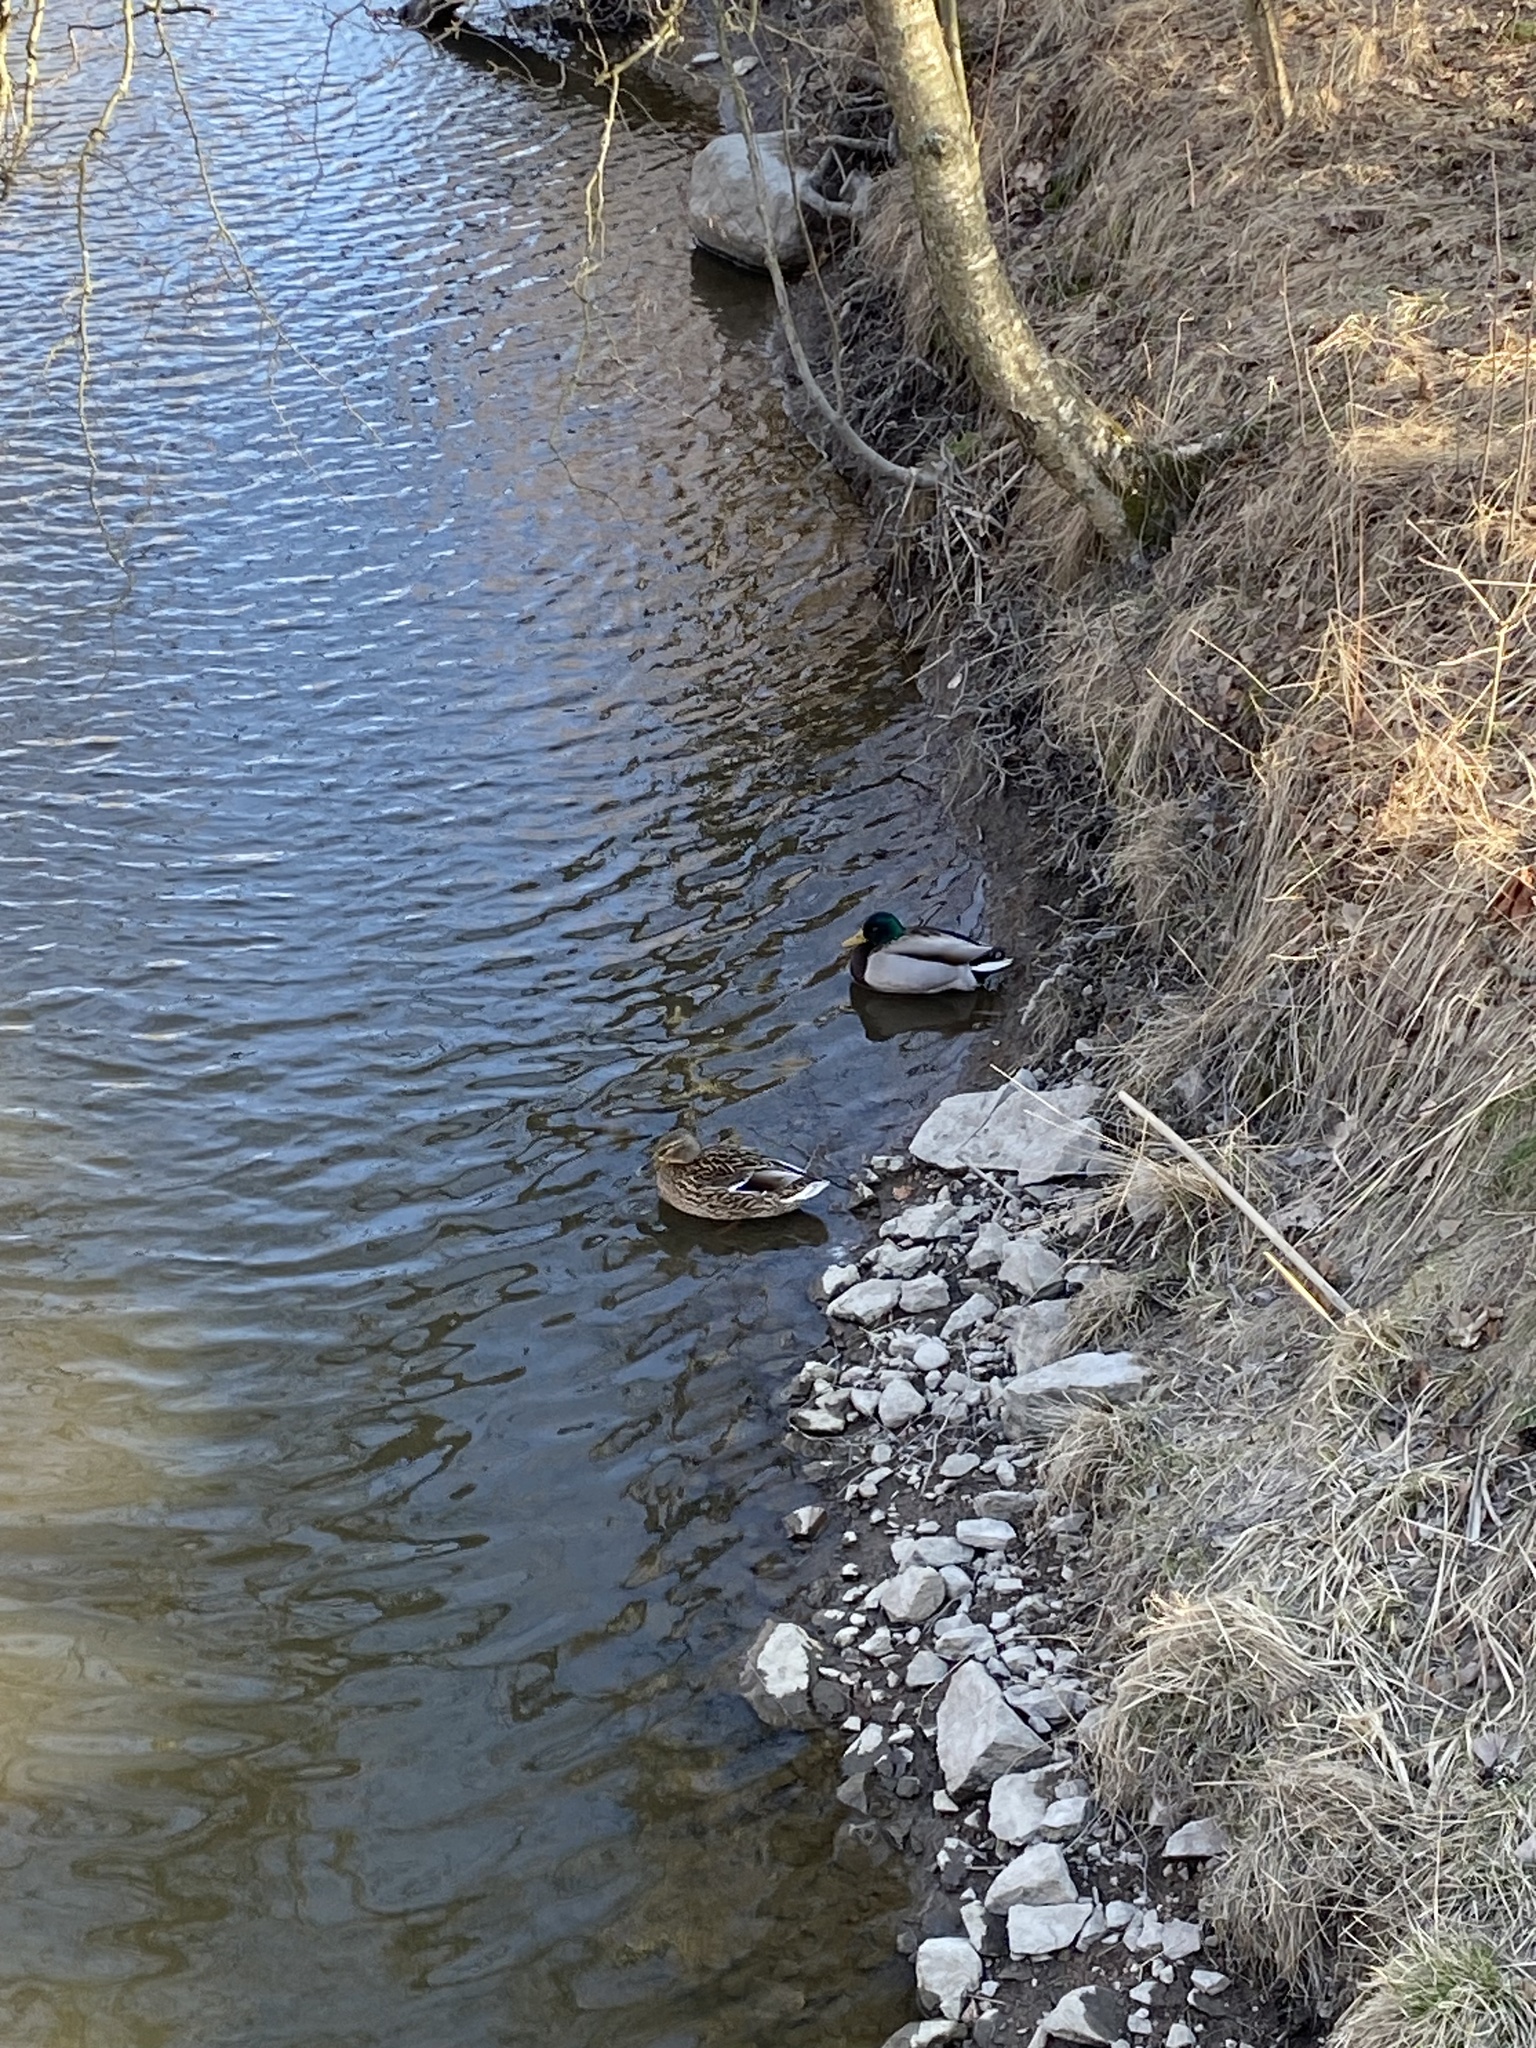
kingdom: Animalia
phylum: Chordata
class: Aves
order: Anseriformes
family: Anatidae
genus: Anas
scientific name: Anas platyrhynchos
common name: Mallard
